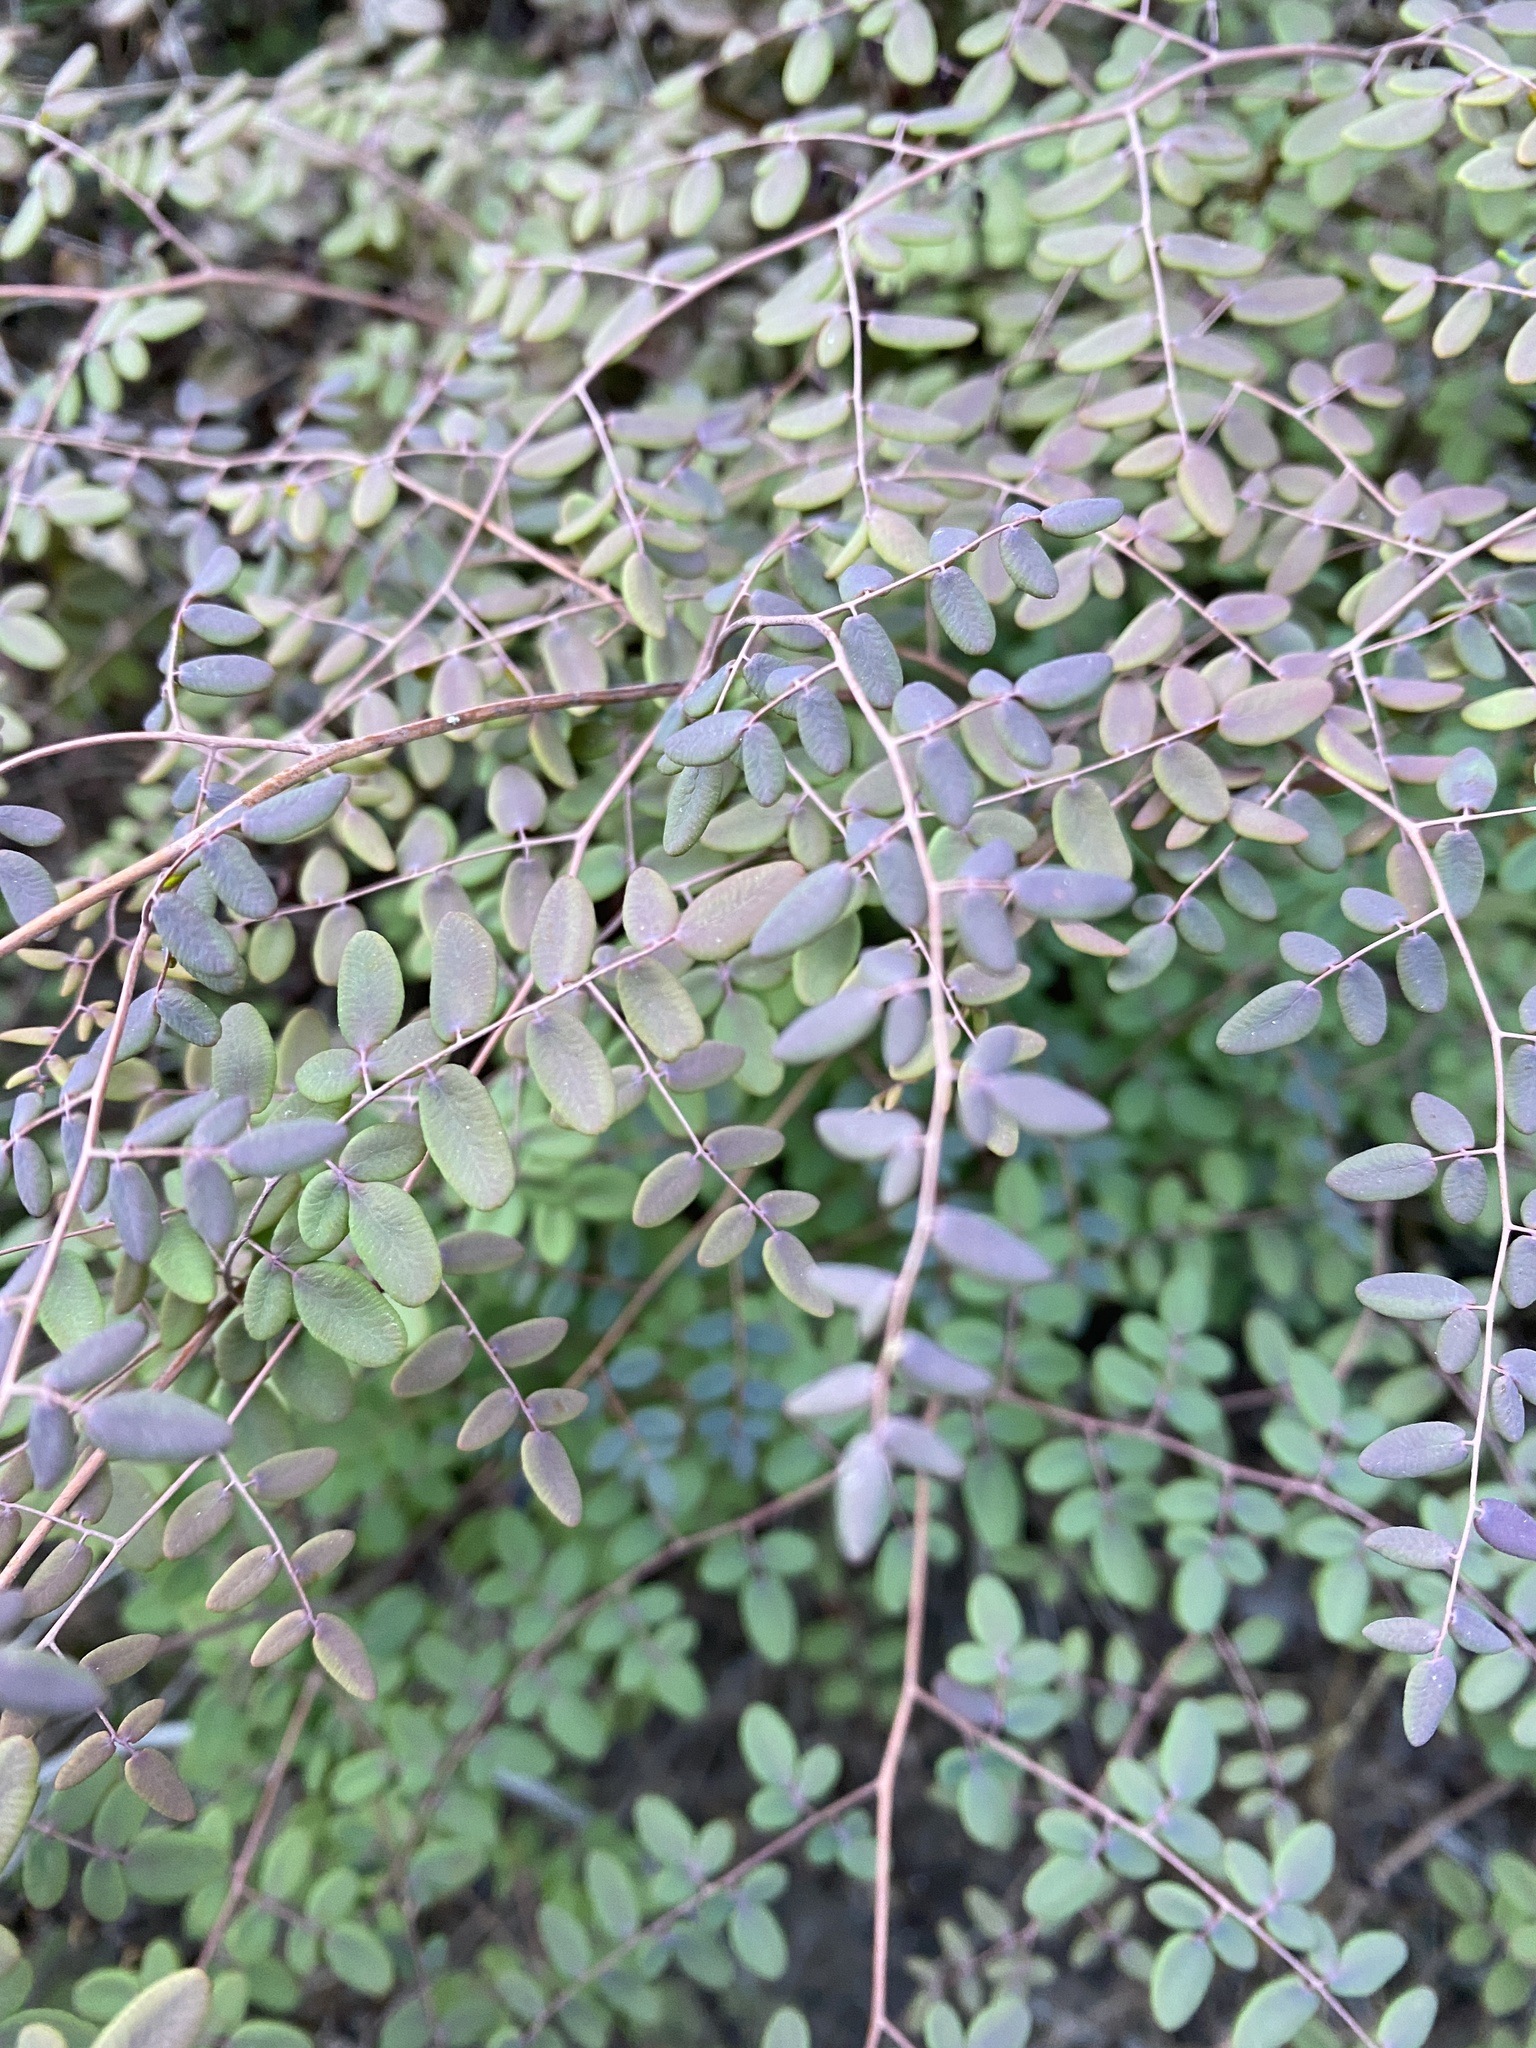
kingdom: Plantae
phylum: Tracheophyta
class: Polypodiopsida
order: Polypodiales
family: Pteridaceae
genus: Pellaea
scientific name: Pellaea andromedifolia
